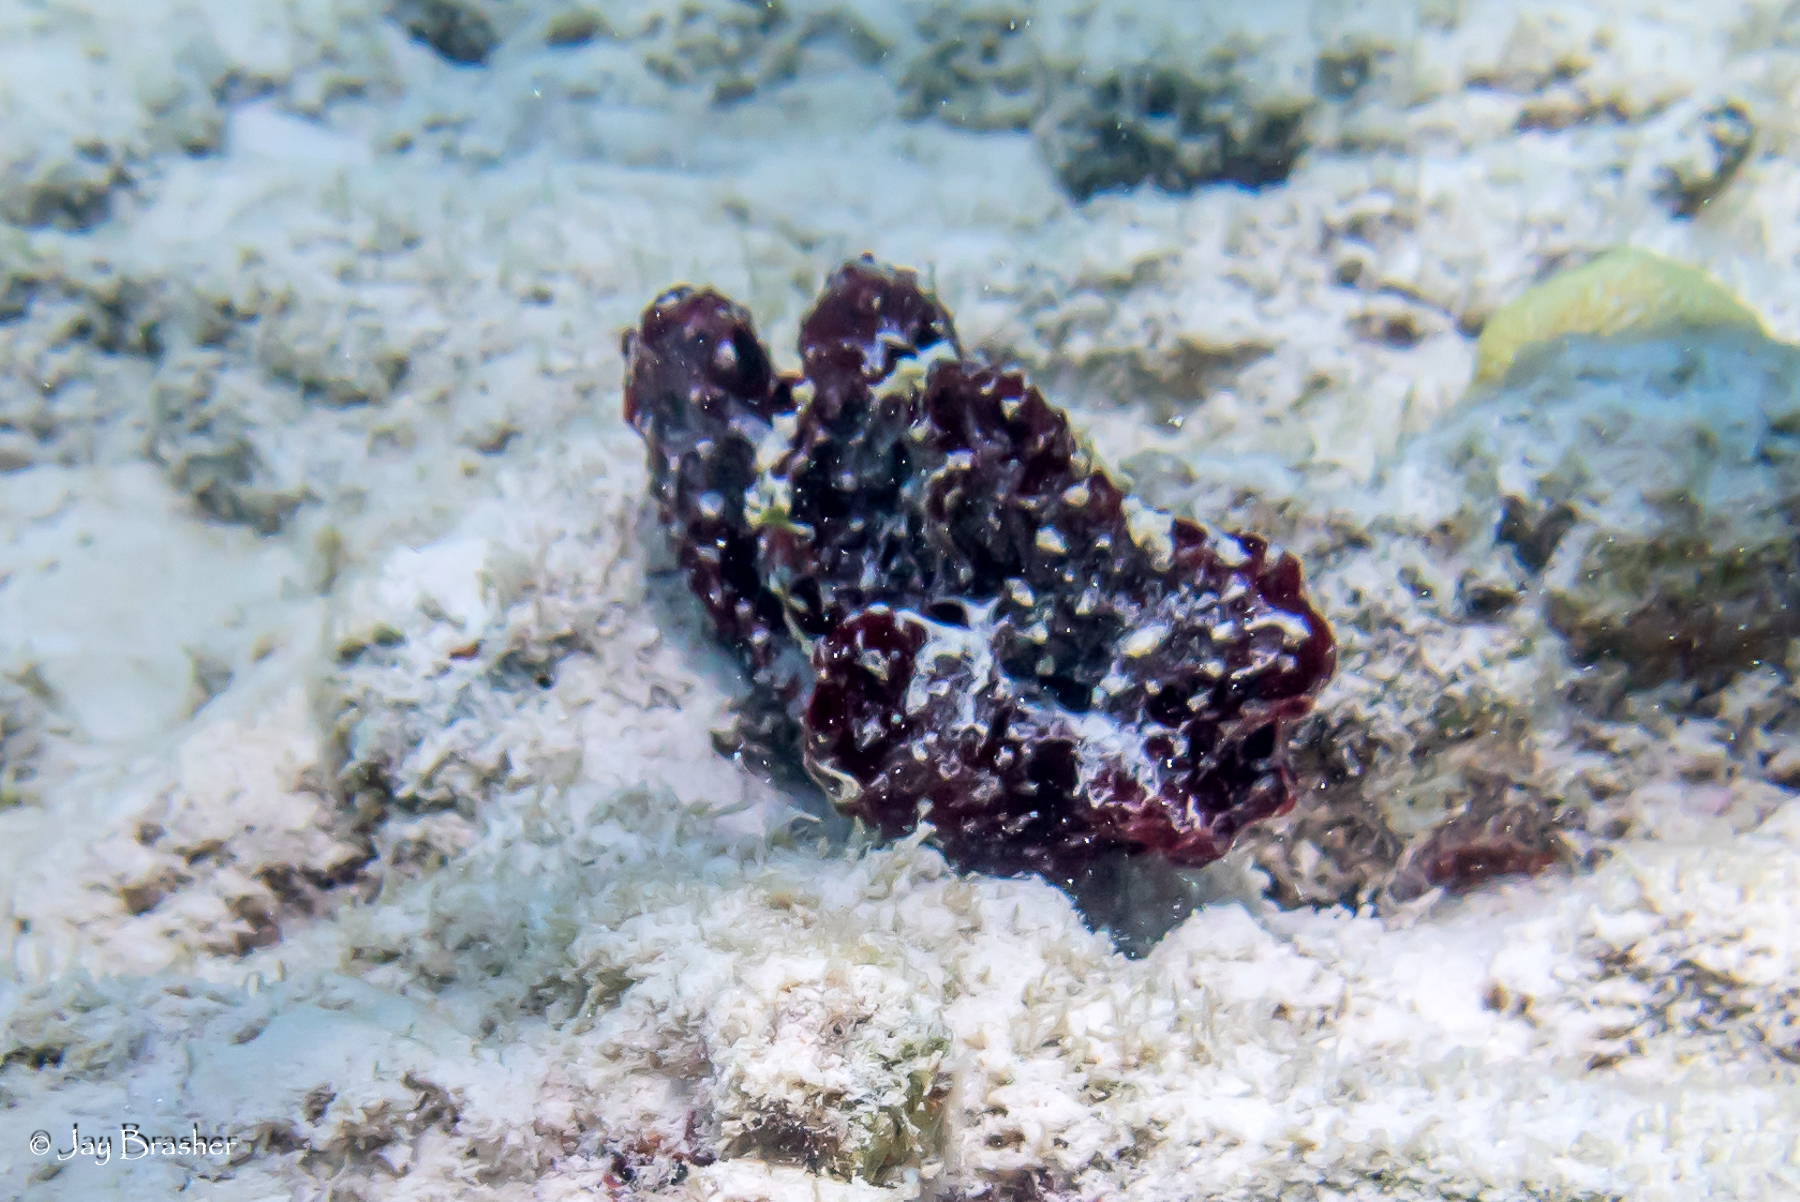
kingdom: Animalia
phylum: Porifera
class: Demospongiae
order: Poecilosclerida
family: Microcionidae
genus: Pandaros
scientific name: Pandaros acanthifolium
